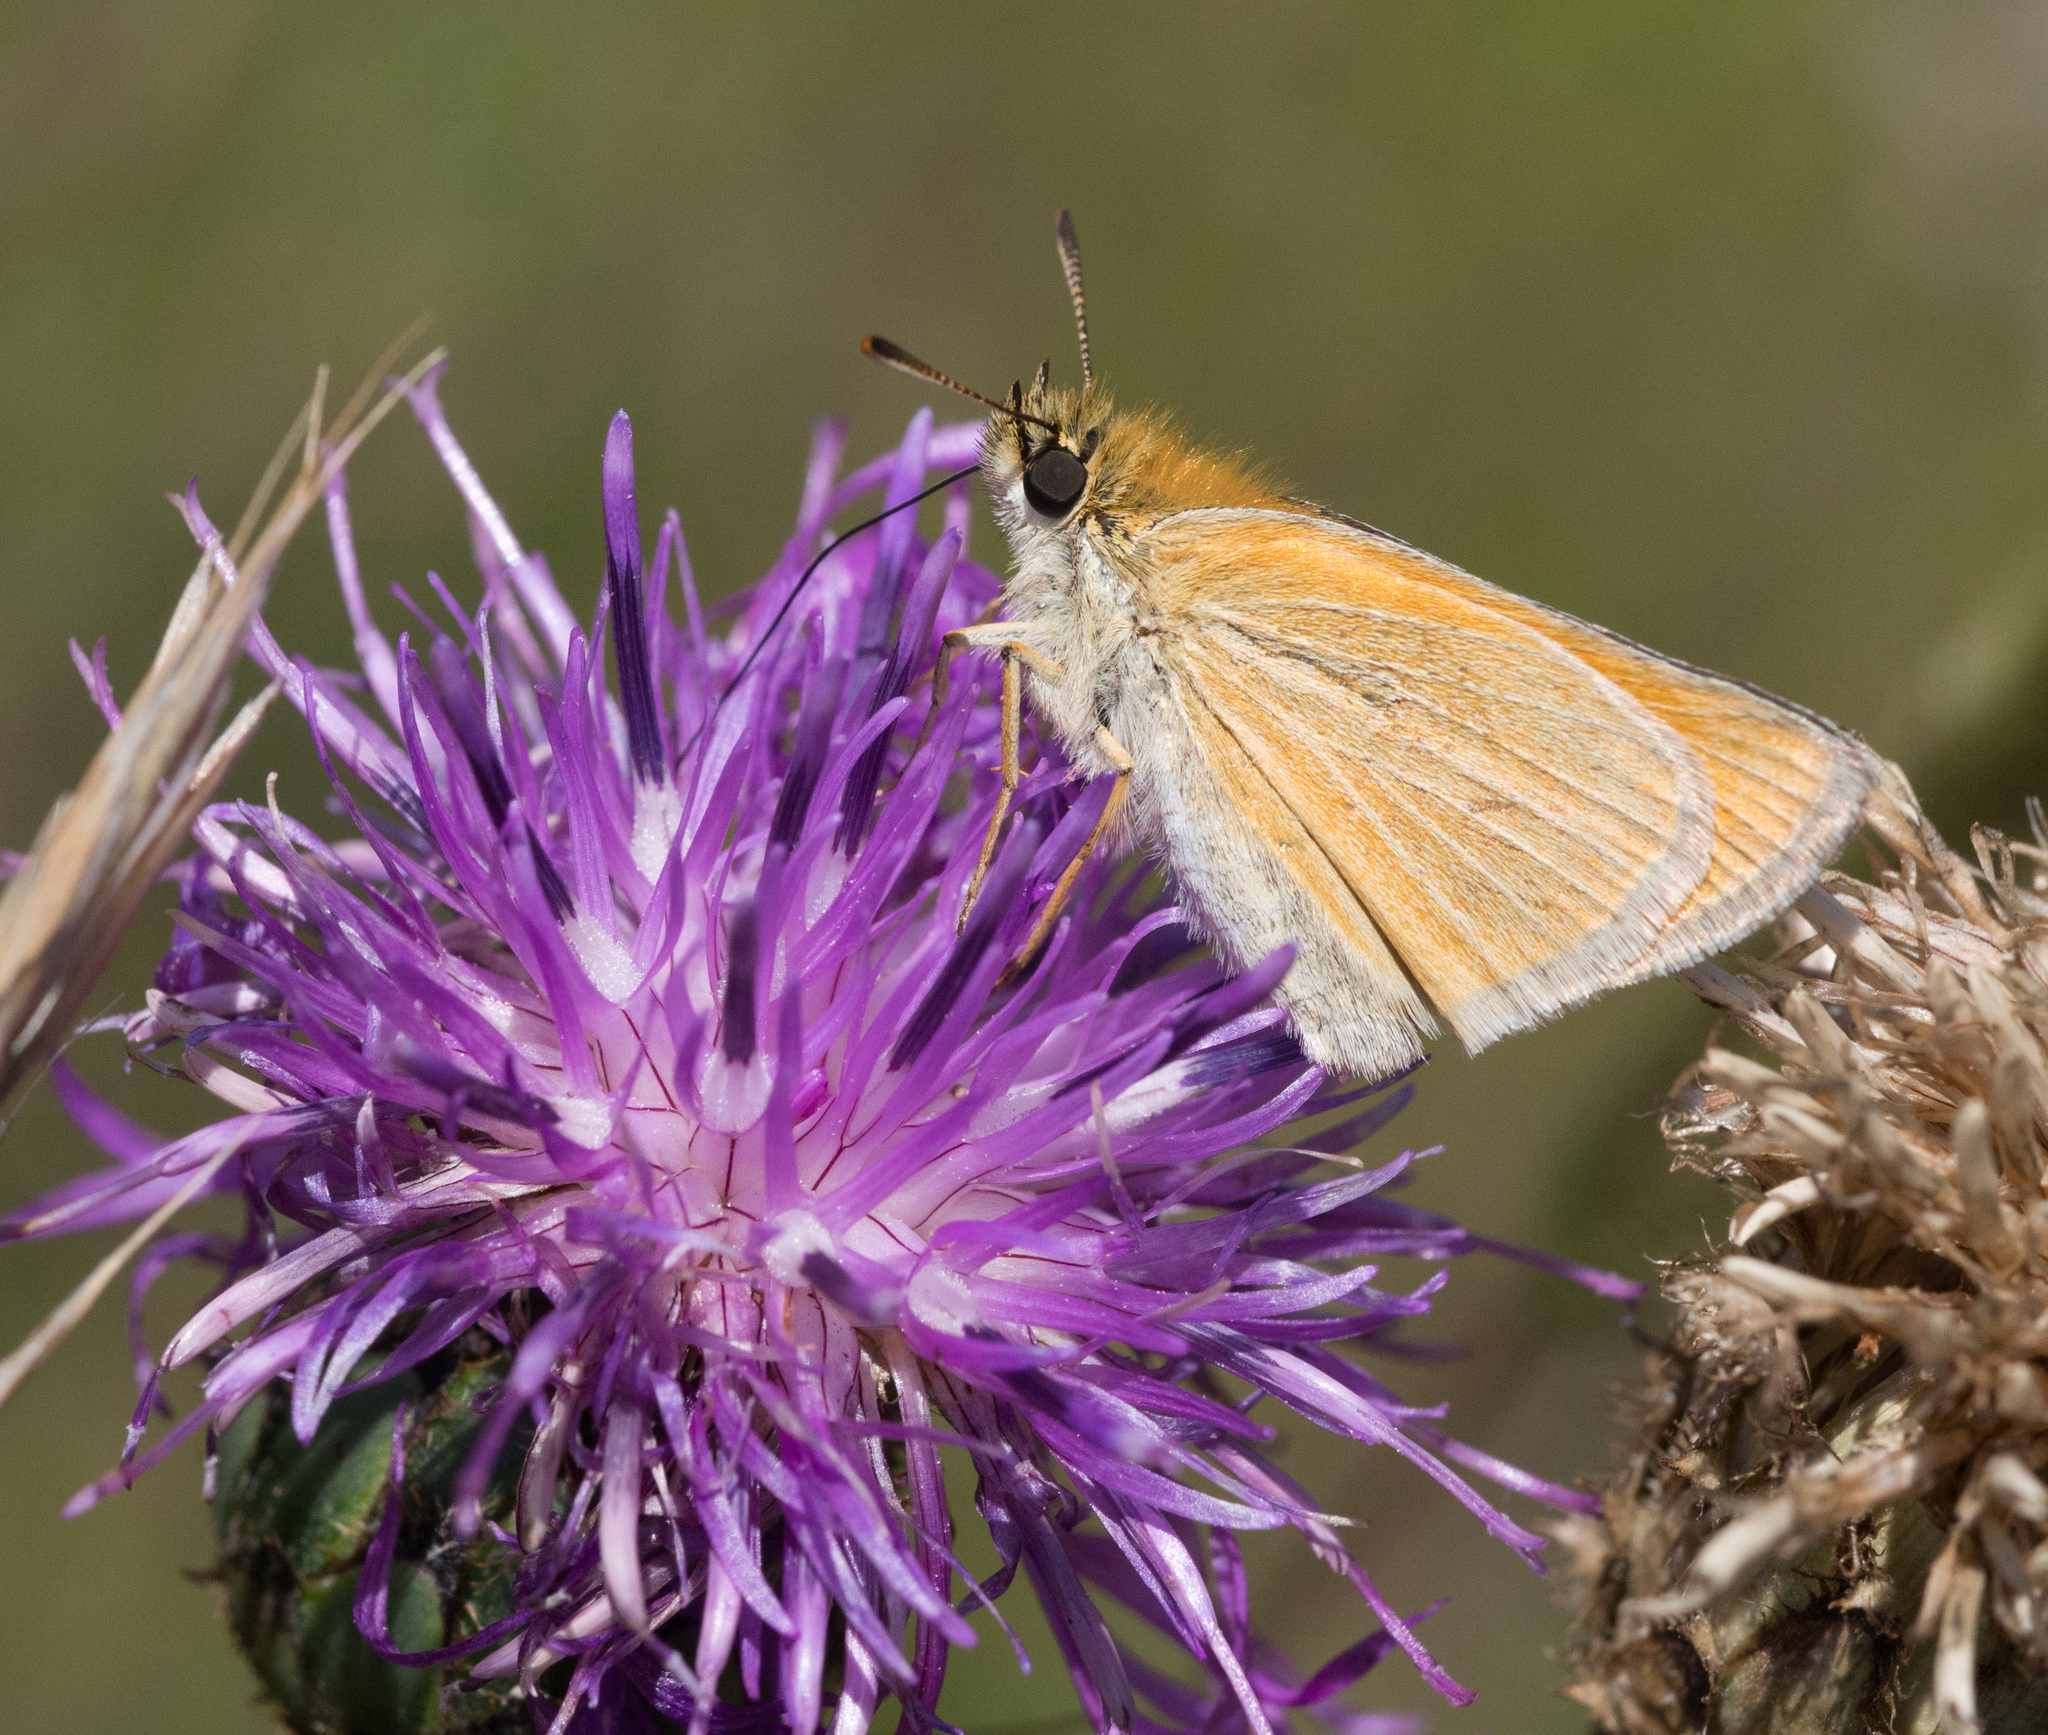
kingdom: Animalia
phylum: Arthropoda
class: Insecta
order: Lepidoptera
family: Hesperiidae
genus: Thymelicus
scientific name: Thymelicus sylvestris
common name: Small skipper
